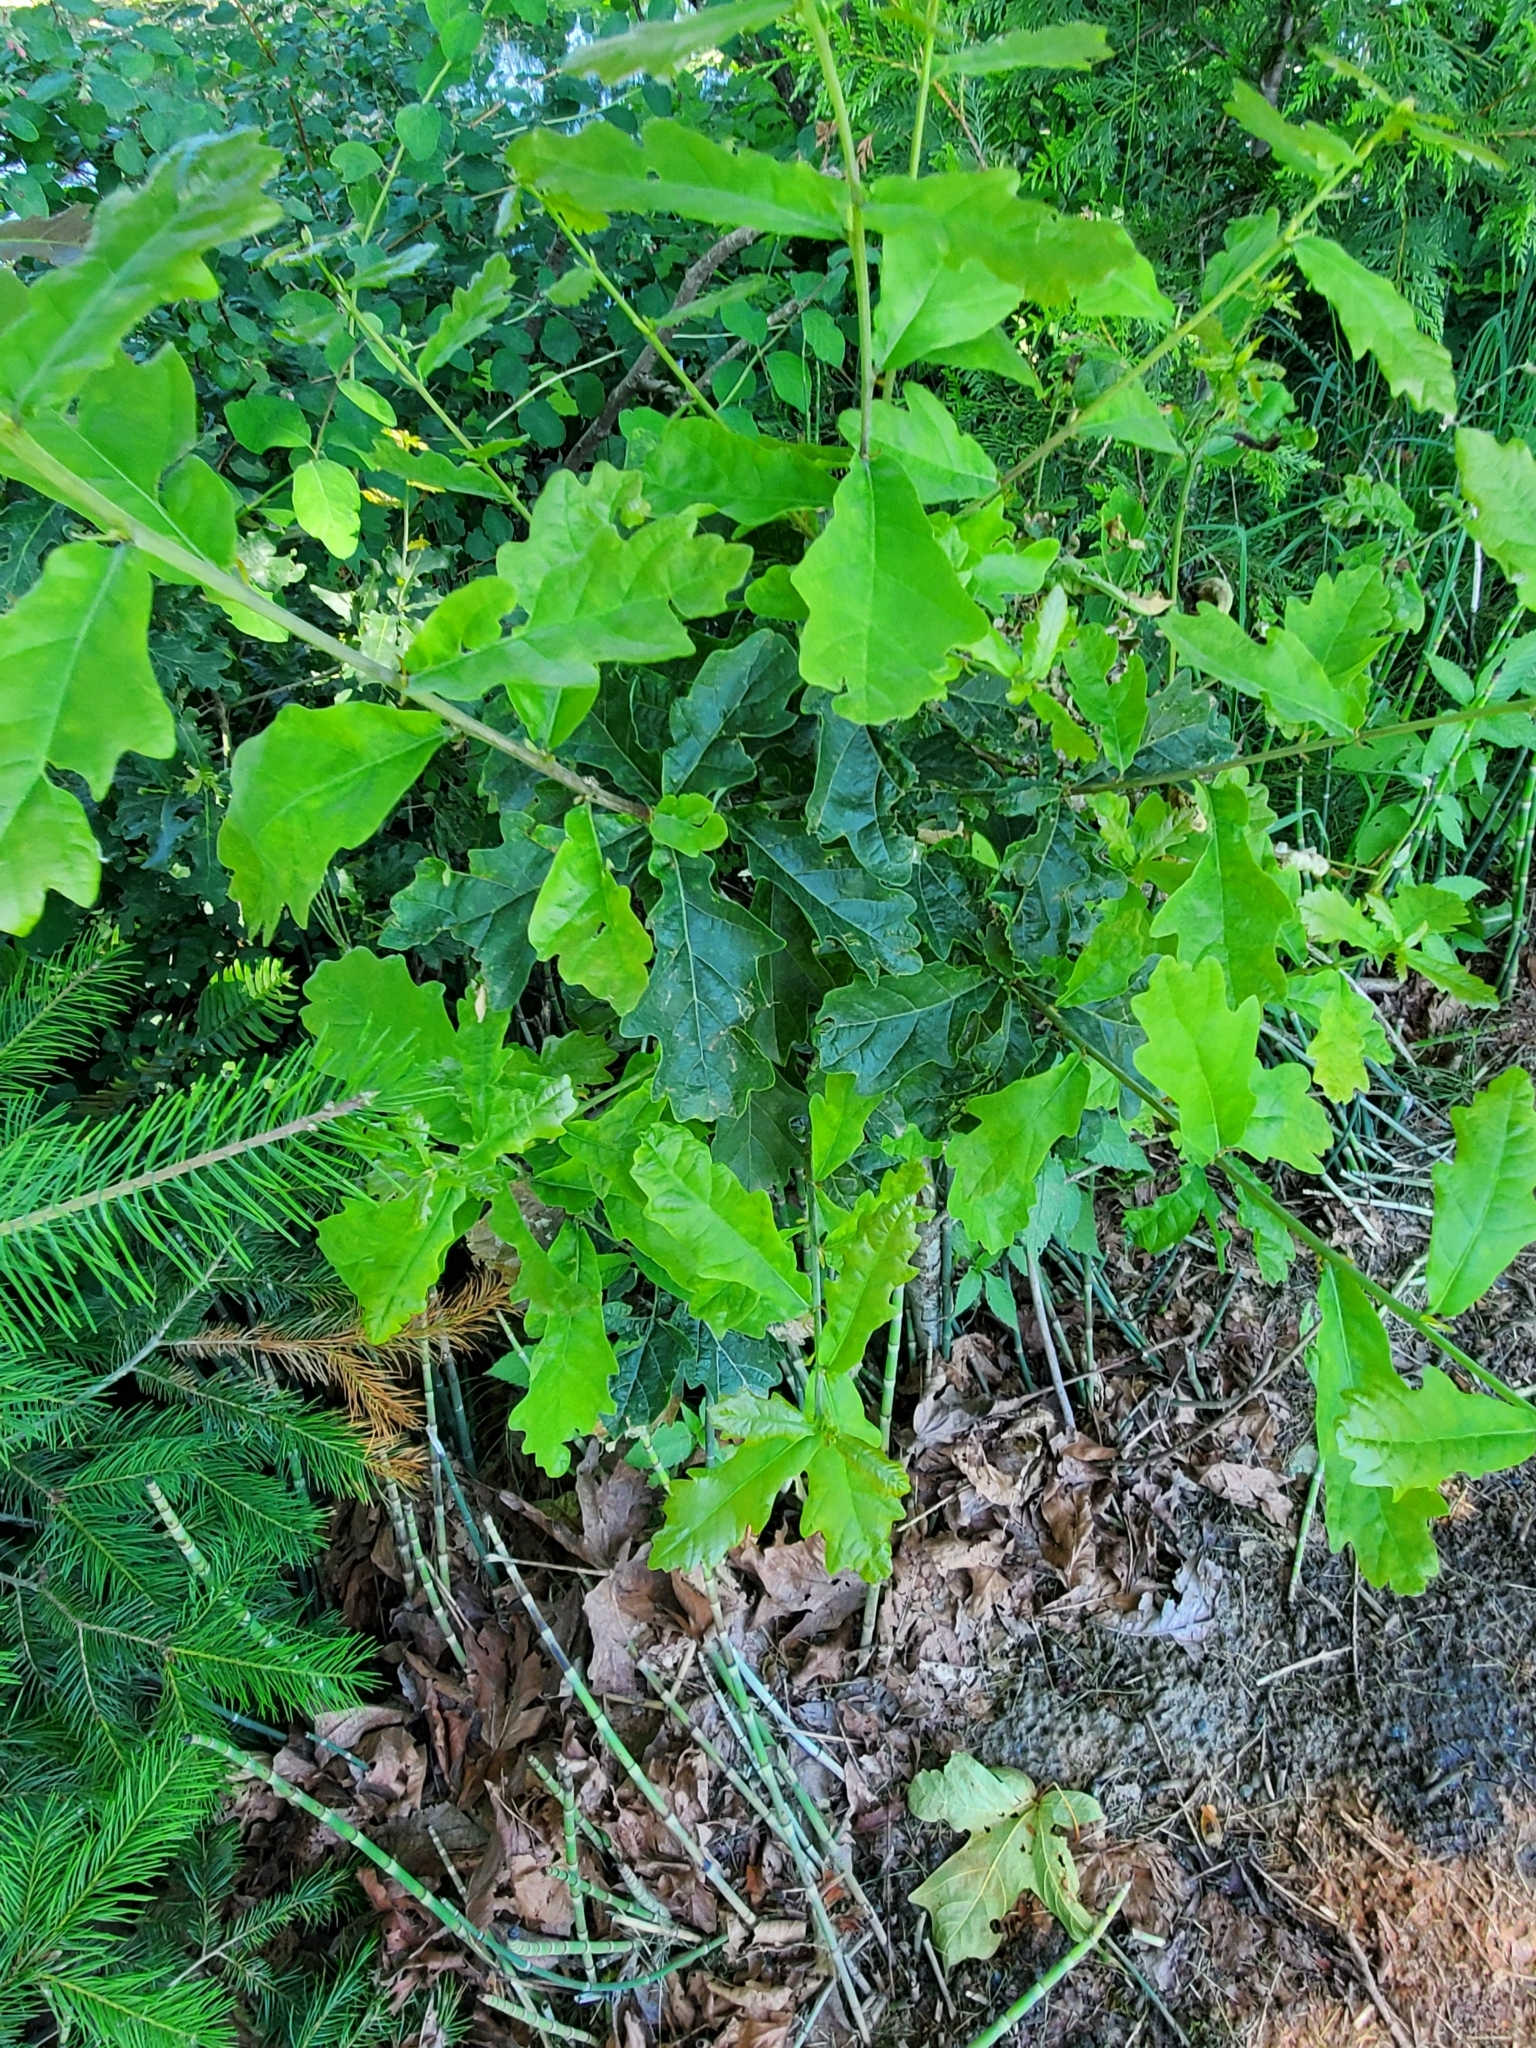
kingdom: Plantae
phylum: Tracheophyta
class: Magnoliopsida
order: Fagales
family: Fagaceae
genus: Quercus
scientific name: Quercus robur
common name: Pedunculate oak
